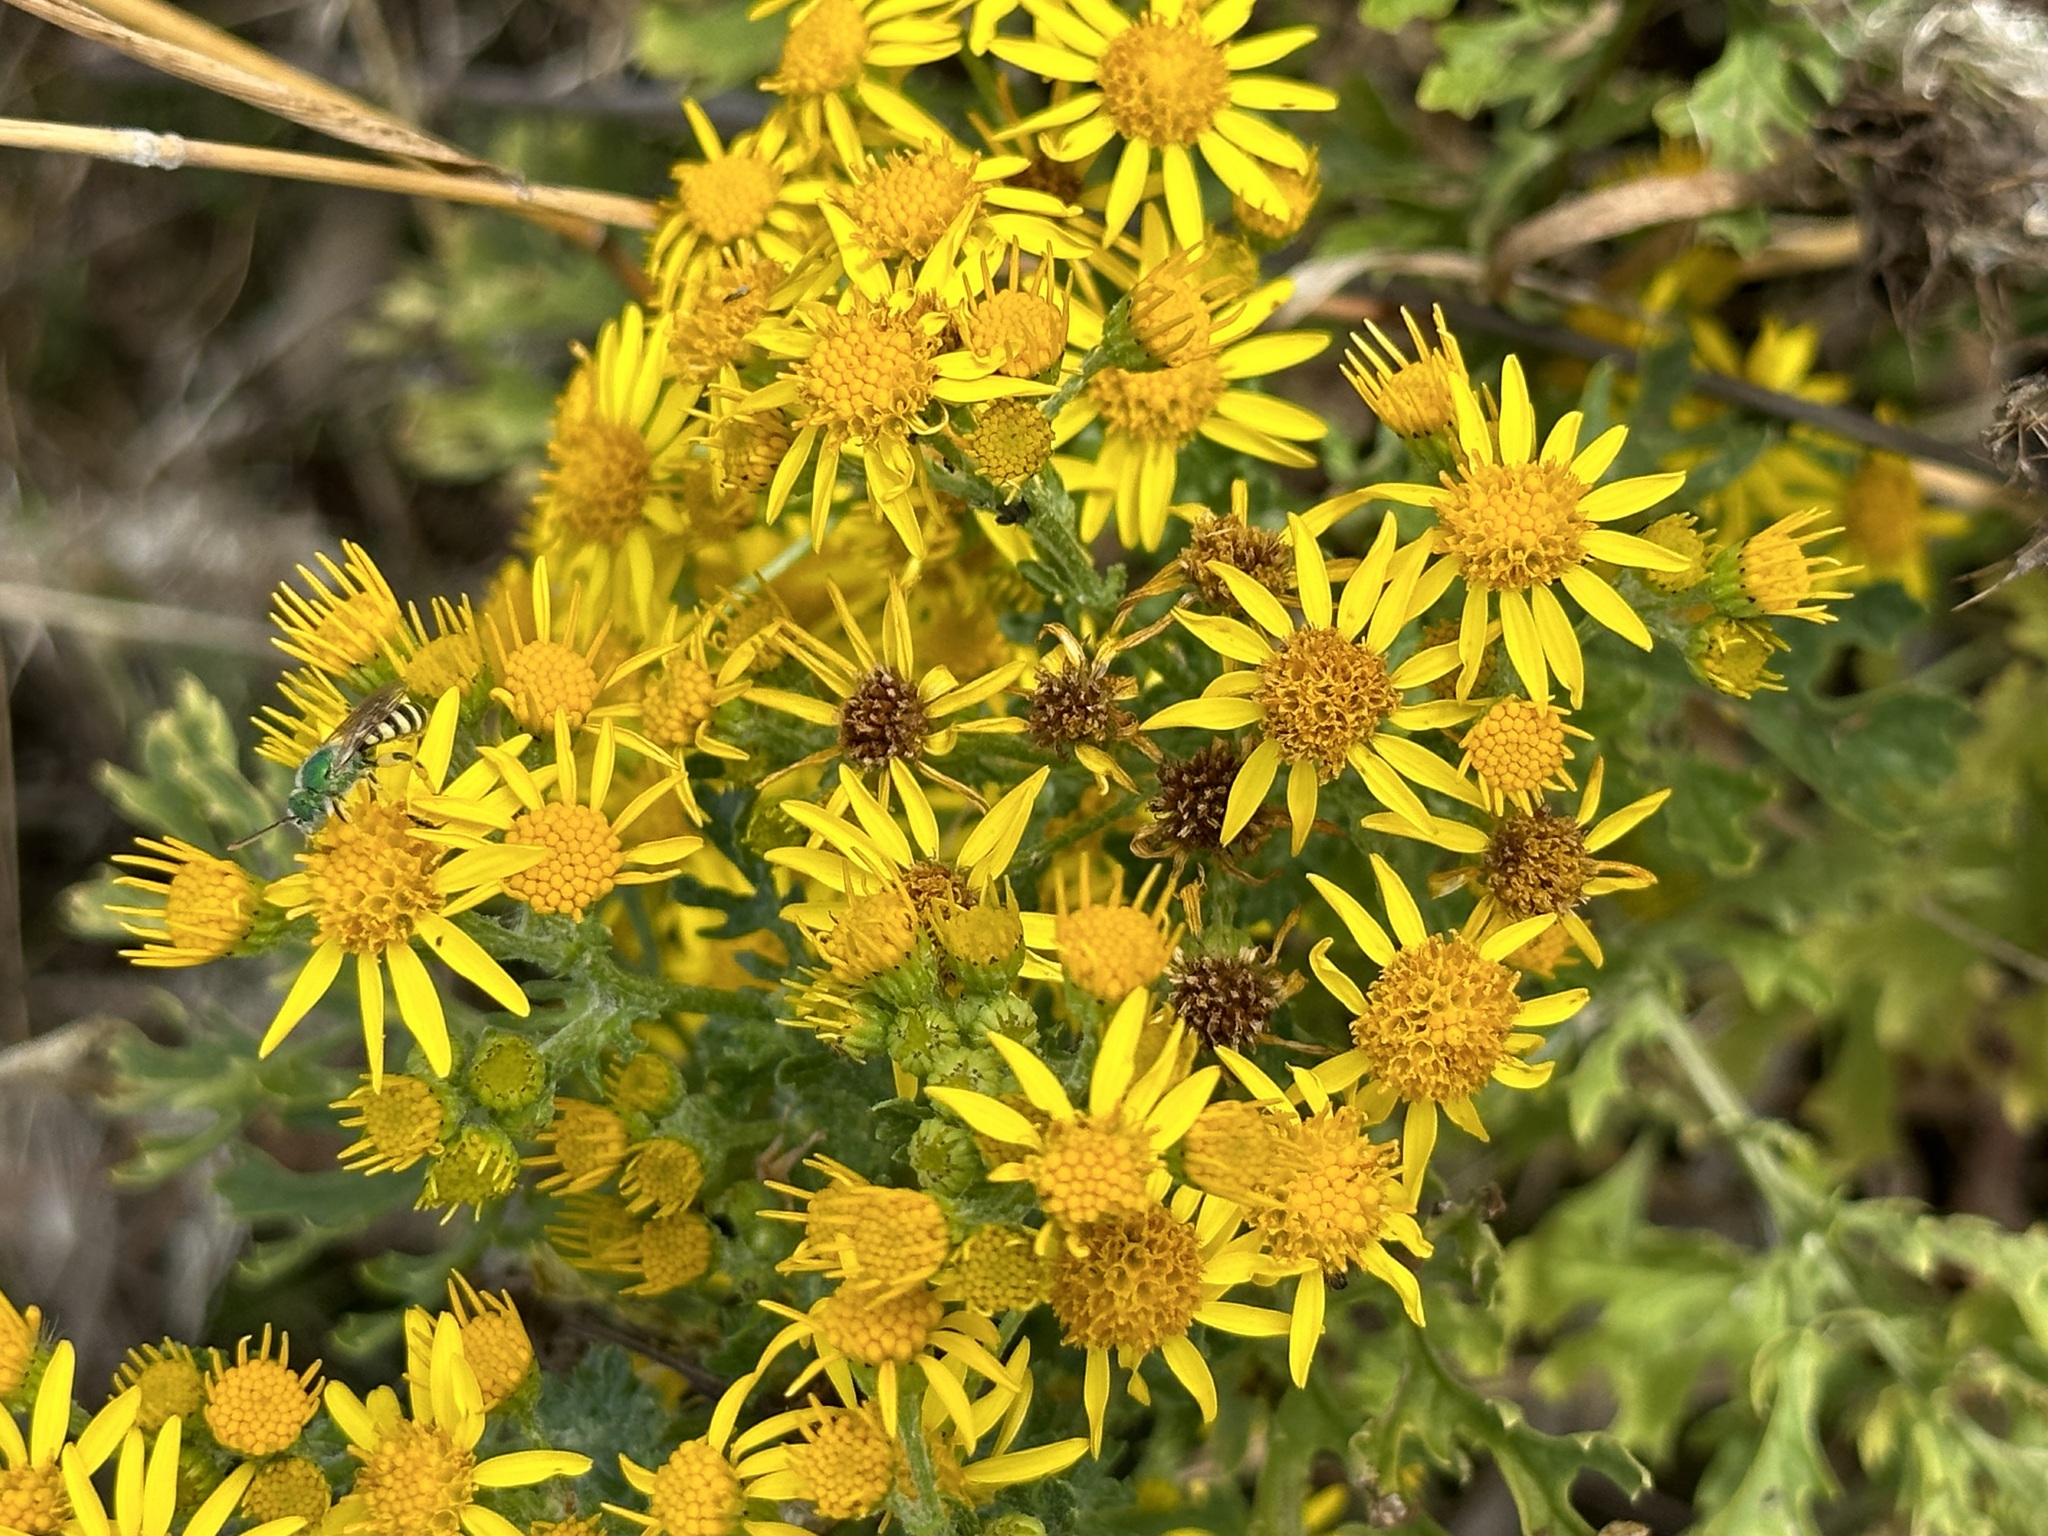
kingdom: Plantae
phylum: Tracheophyta
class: Magnoliopsida
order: Asterales
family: Asteraceae
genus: Jacobaea
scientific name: Jacobaea vulgaris
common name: Stinking willie
